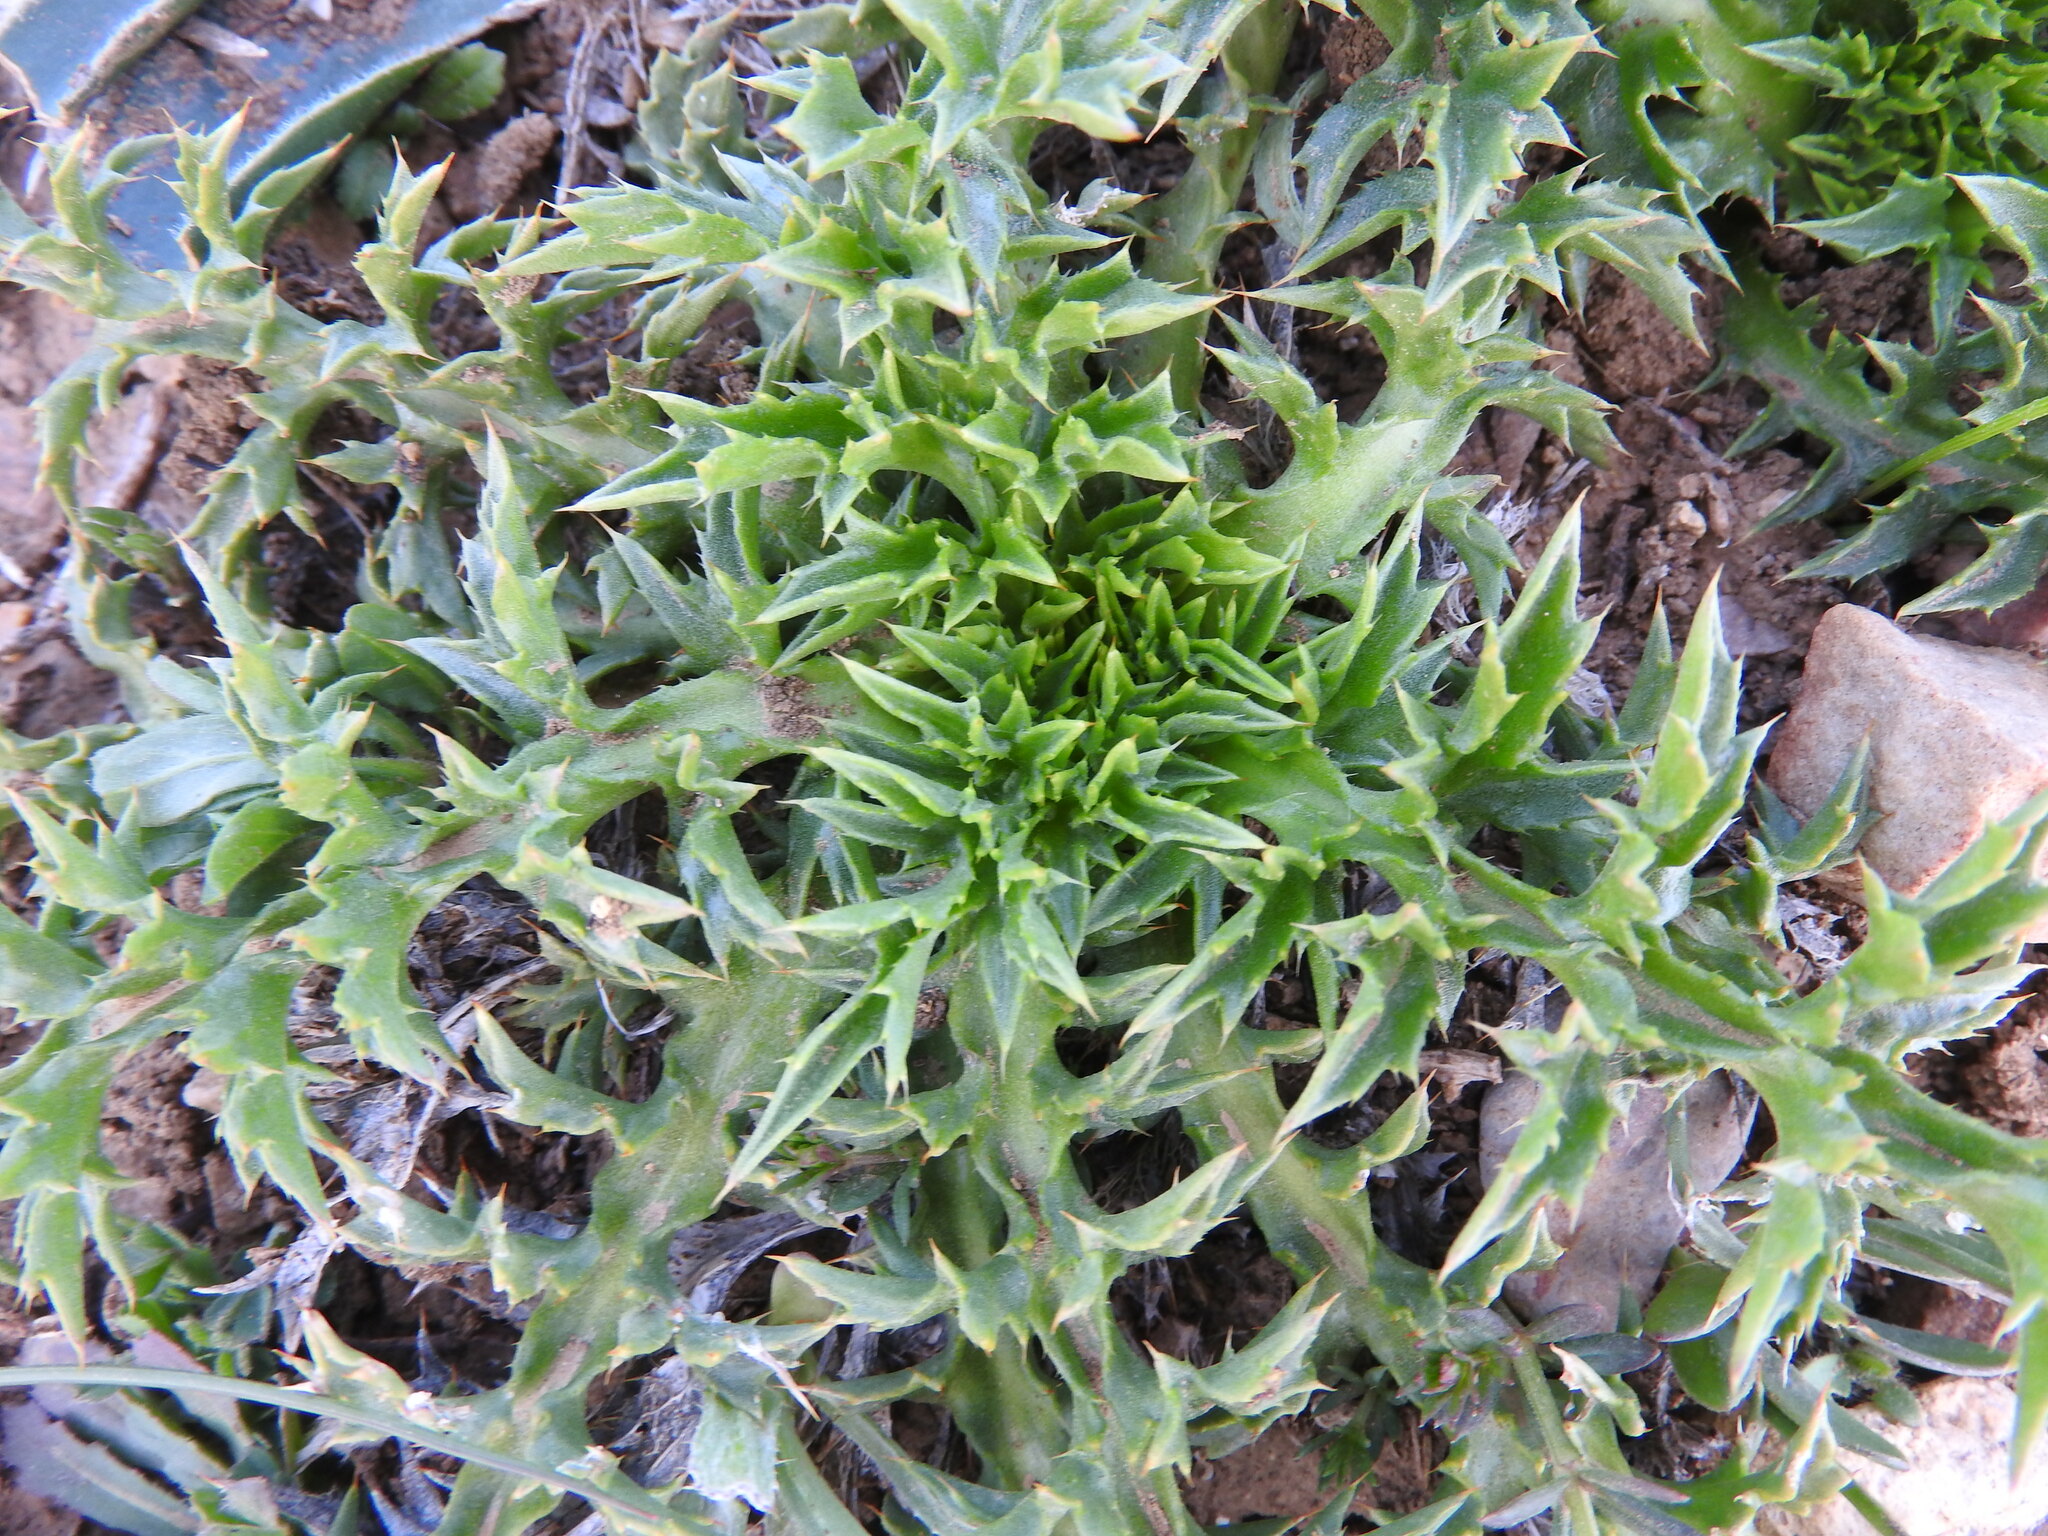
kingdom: Plantae
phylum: Tracheophyta
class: Magnoliopsida
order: Asterales
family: Asteraceae
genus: Chamaeleon
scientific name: Chamaeleon gummifer
